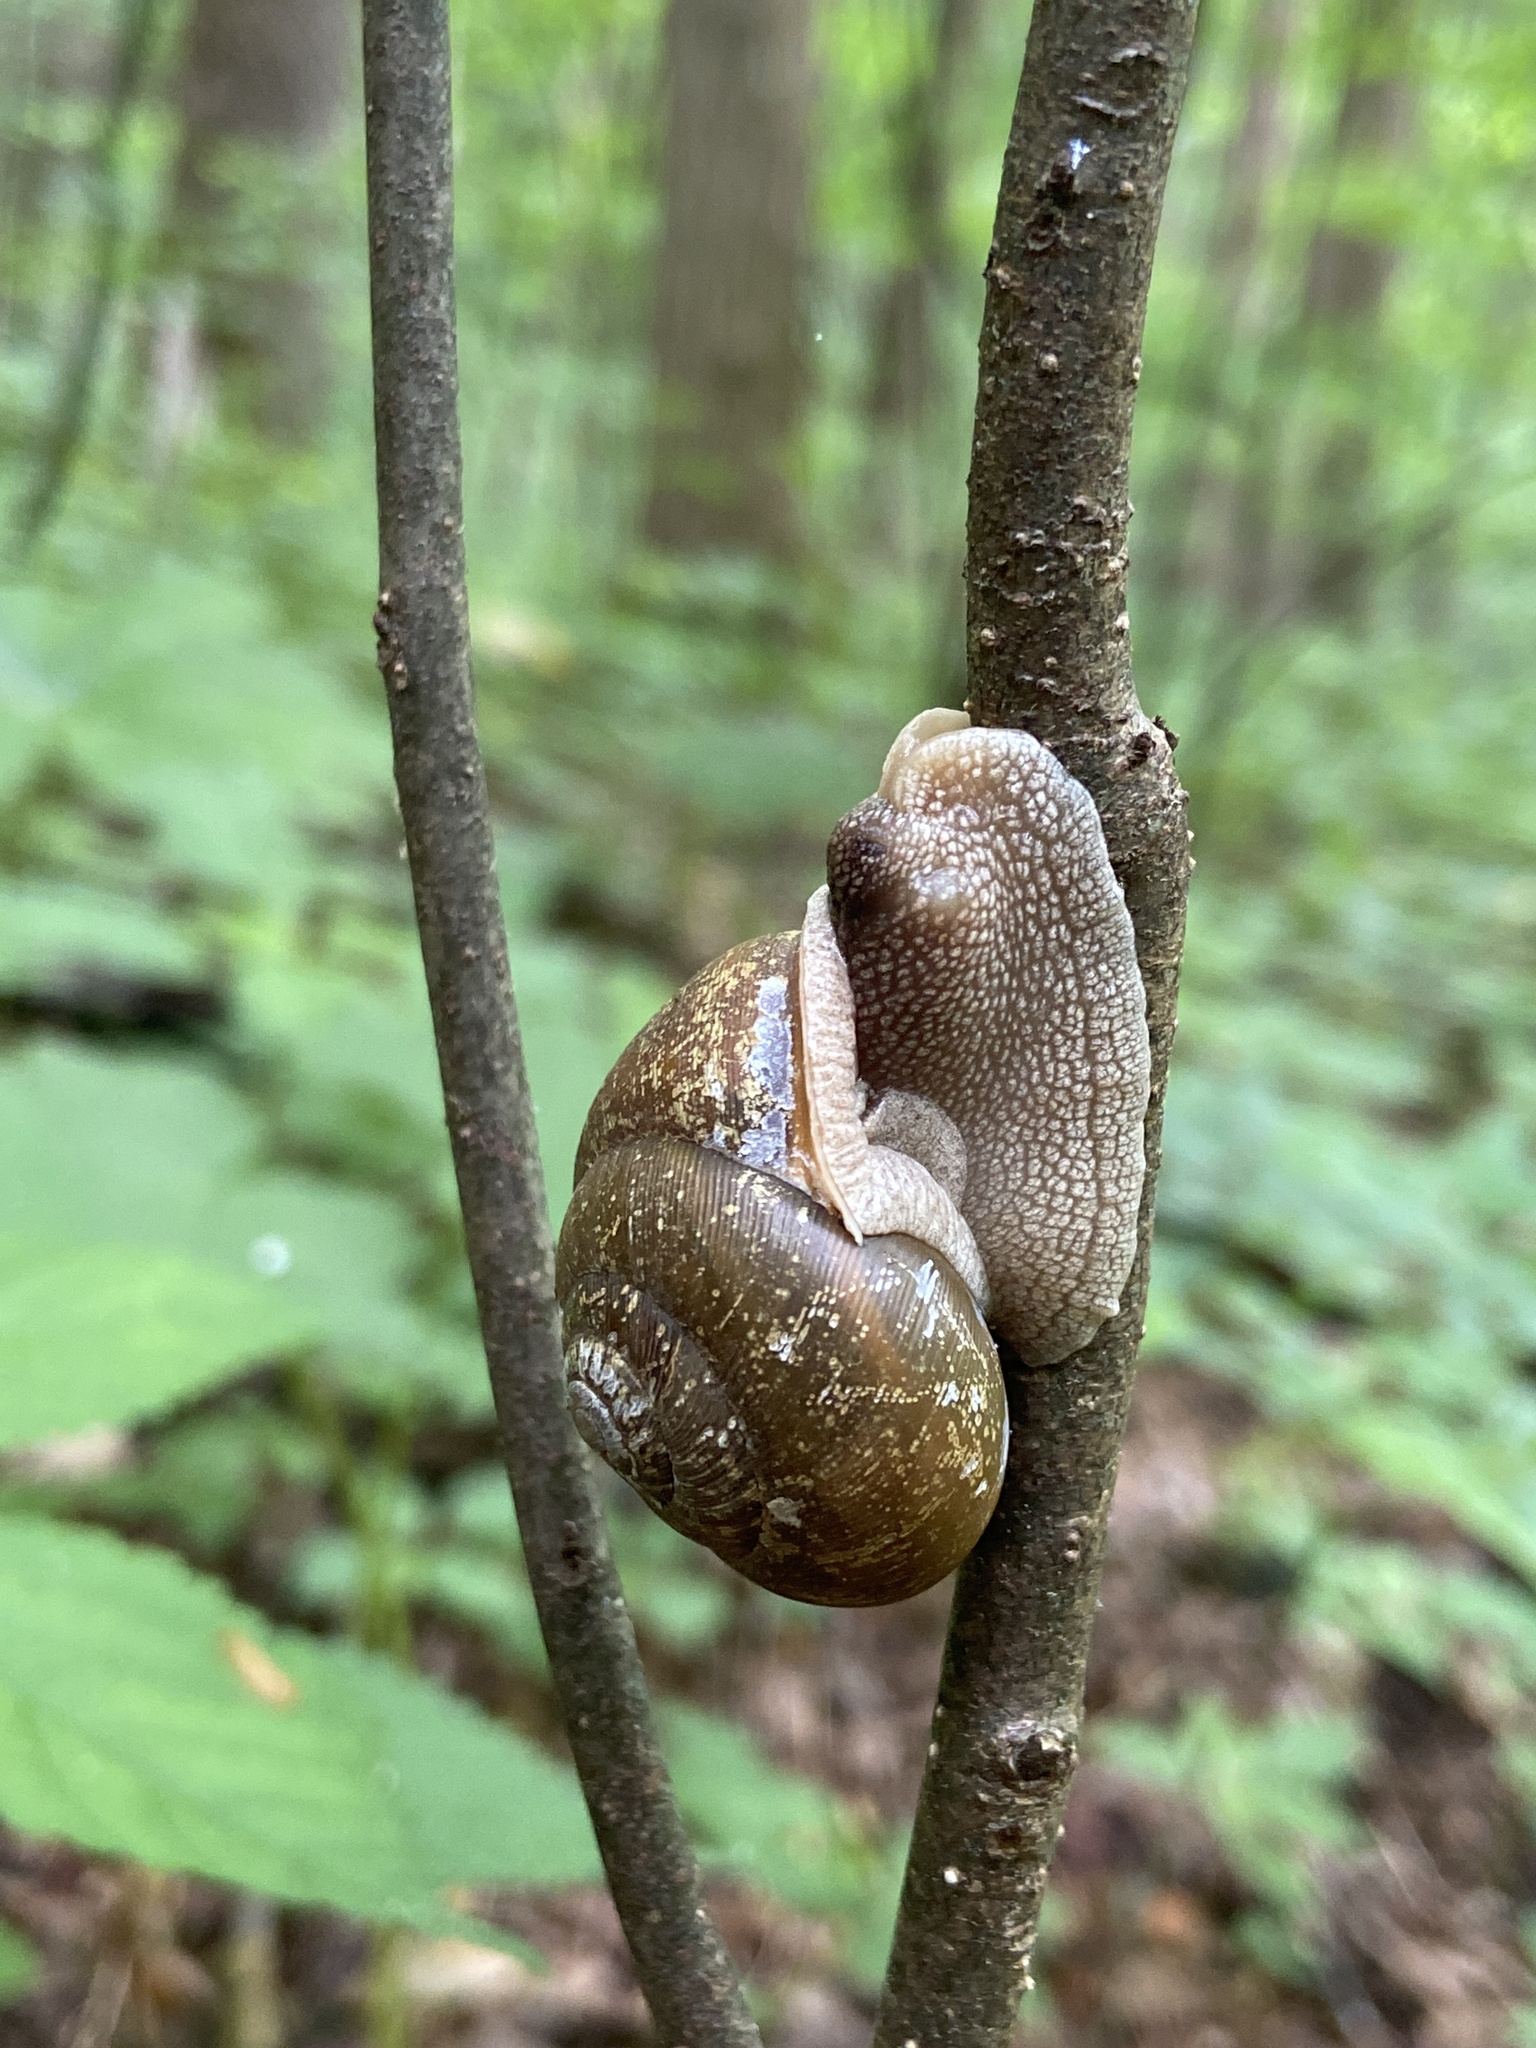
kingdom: Animalia
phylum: Mollusca
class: Gastropoda
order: Stylommatophora
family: Polygyridae
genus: Neohelix
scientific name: Neohelix albolabris
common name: Eastern whitelip
